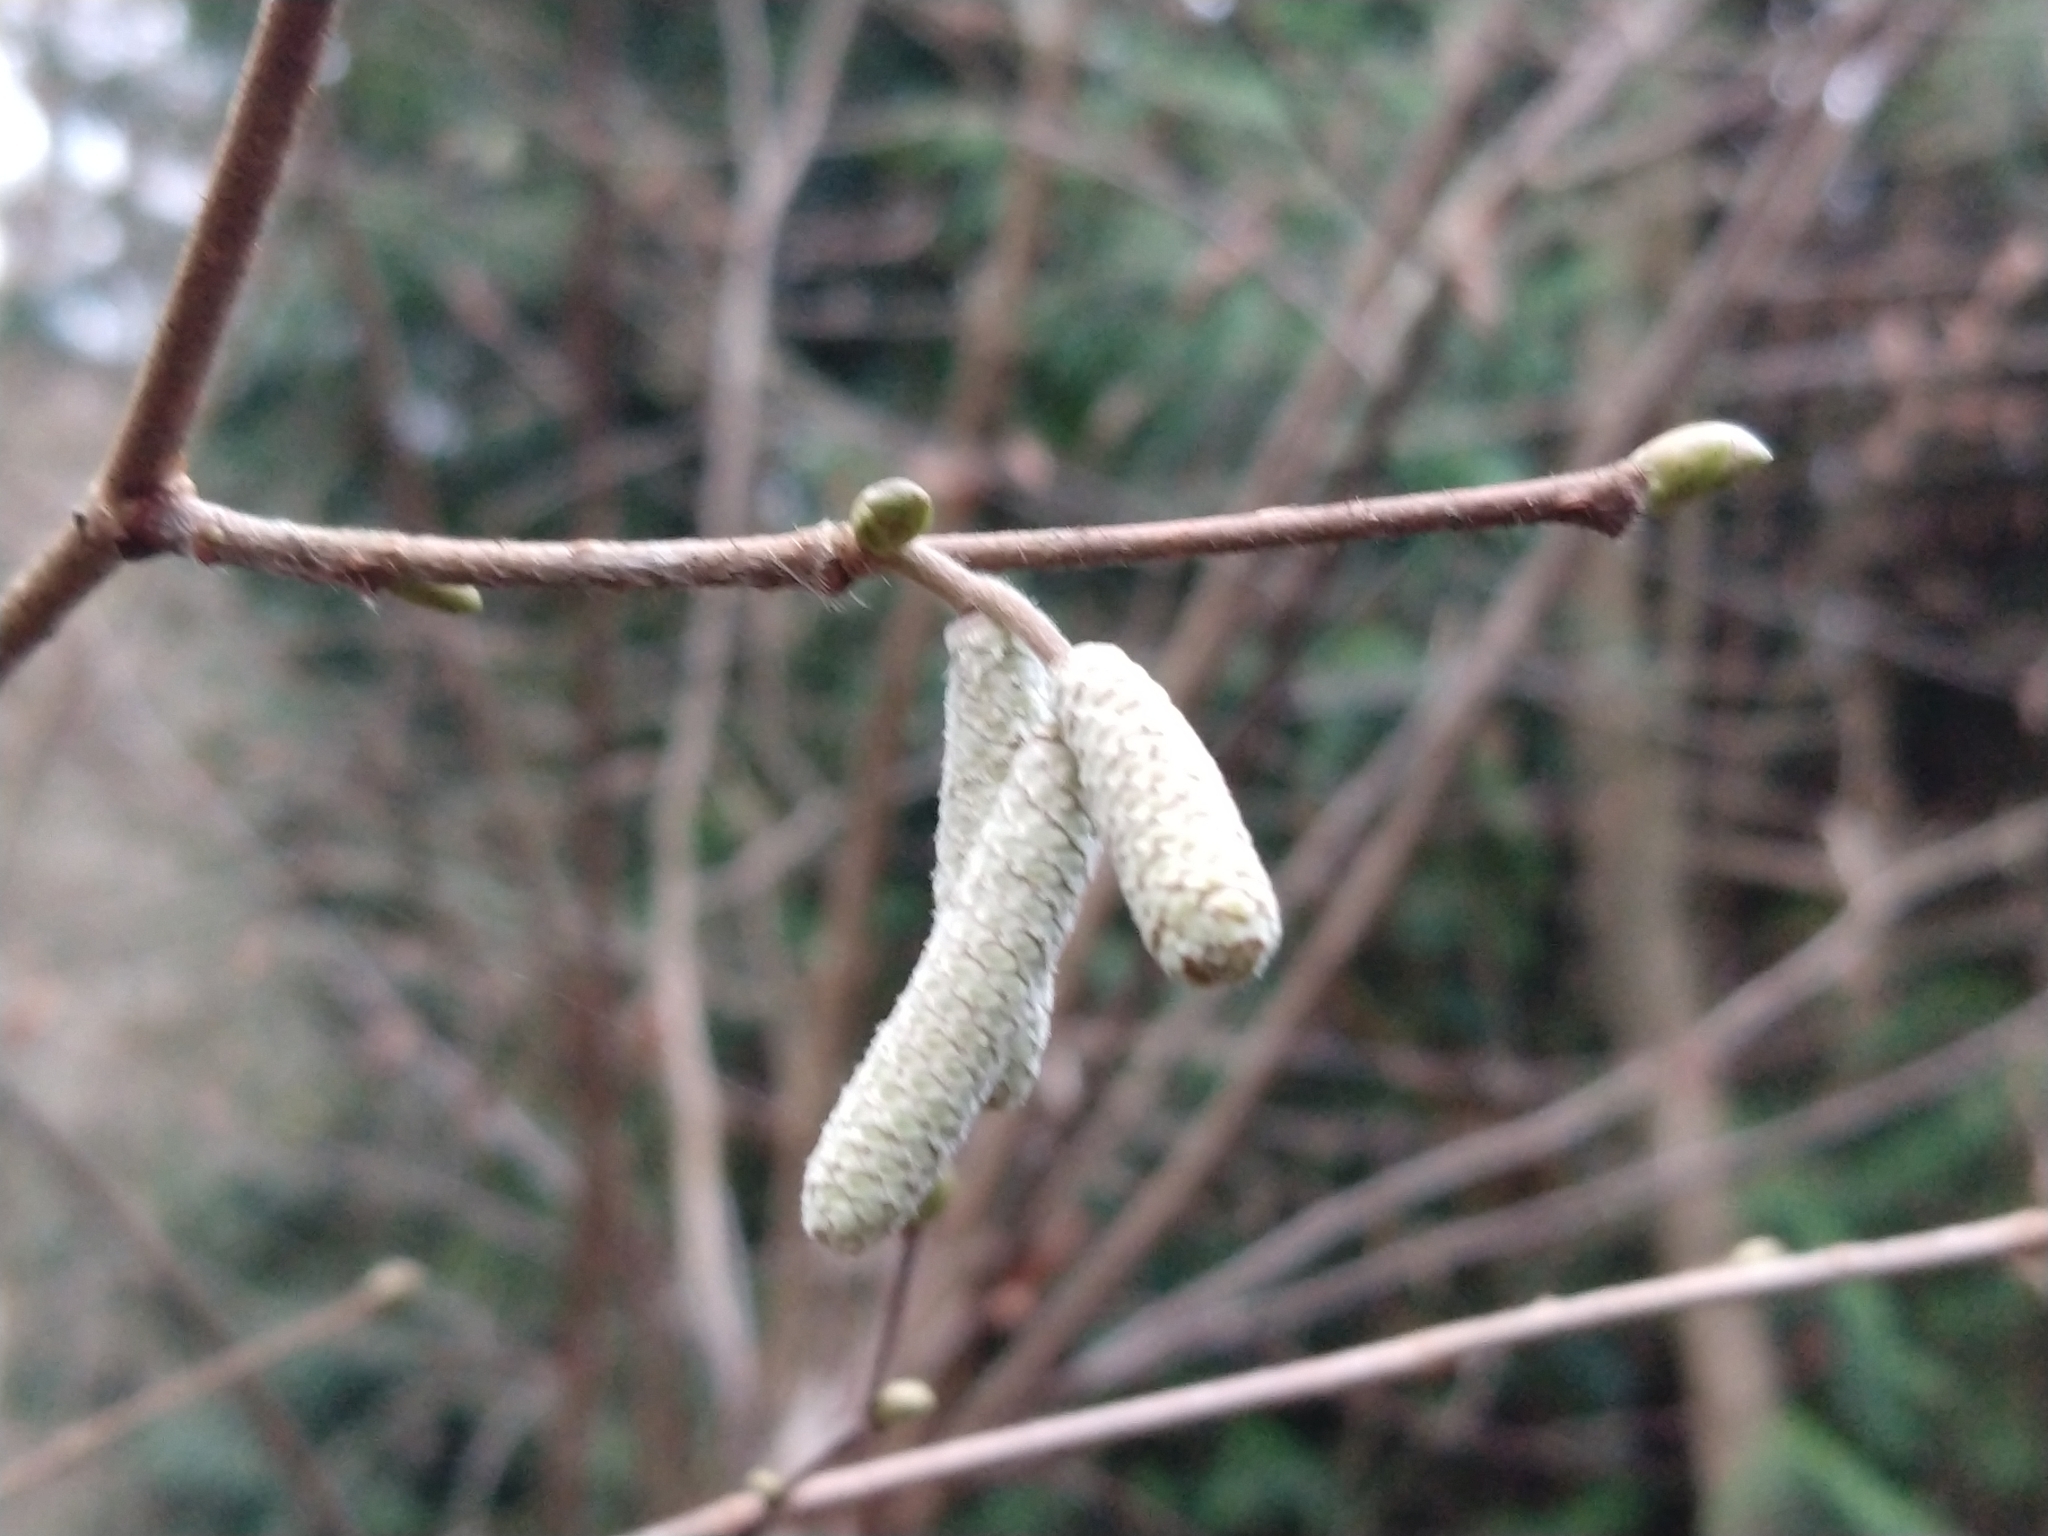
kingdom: Plantae
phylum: Tracheophyta
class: Magnoliopsida
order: Fagales
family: Betulaceae
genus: Corylus
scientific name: Corylus avellana
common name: European hazel
